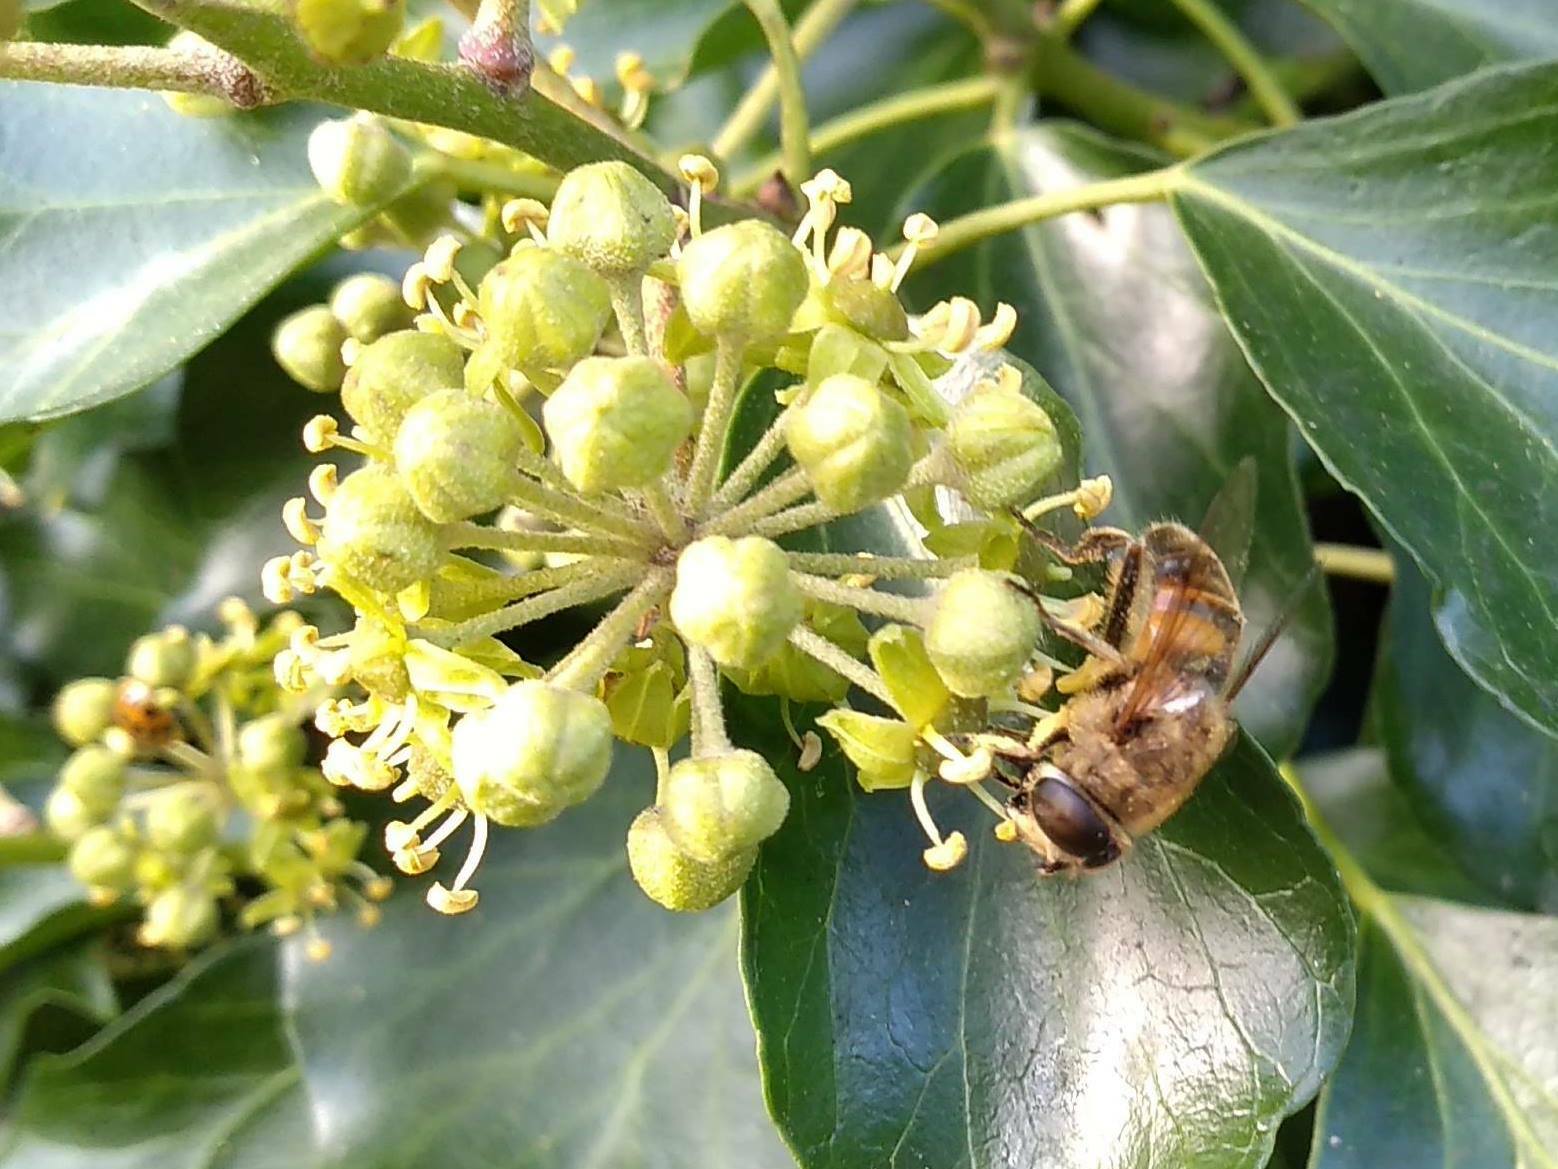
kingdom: Animalia
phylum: Arthropoda
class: Insecta
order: Diptera
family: Syrphidae
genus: Eristalis
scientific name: Eristalis tenax
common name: Drone fly
